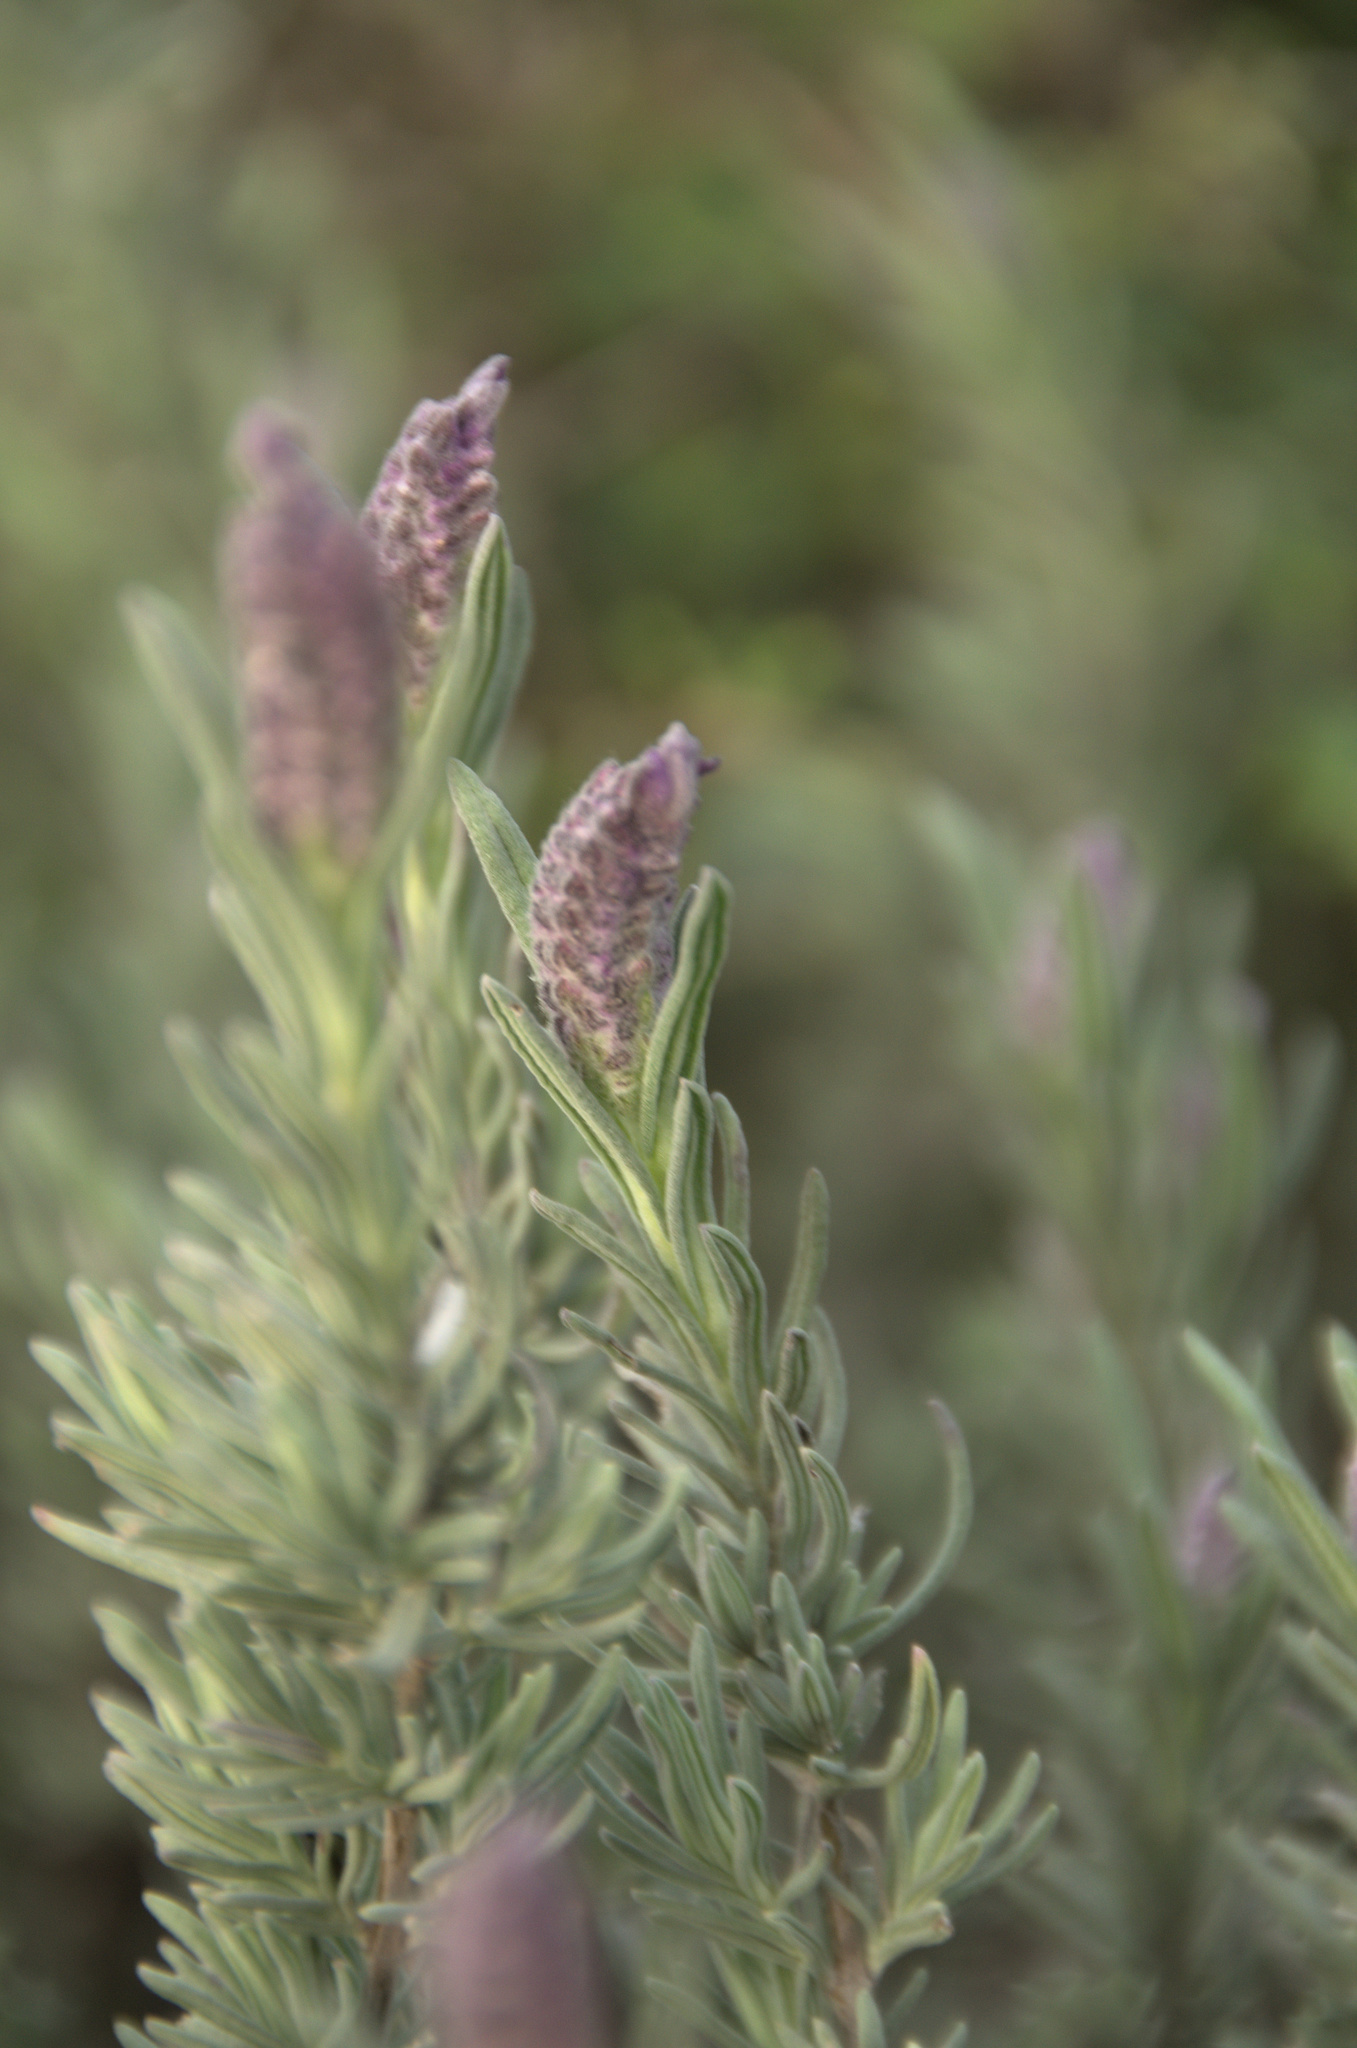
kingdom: Plantae
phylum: Tracheophyta
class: Magnoliopsida
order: Lamiales
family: Lamiaceae
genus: Lavandula
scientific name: Lavandula stoechas
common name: French lavender
